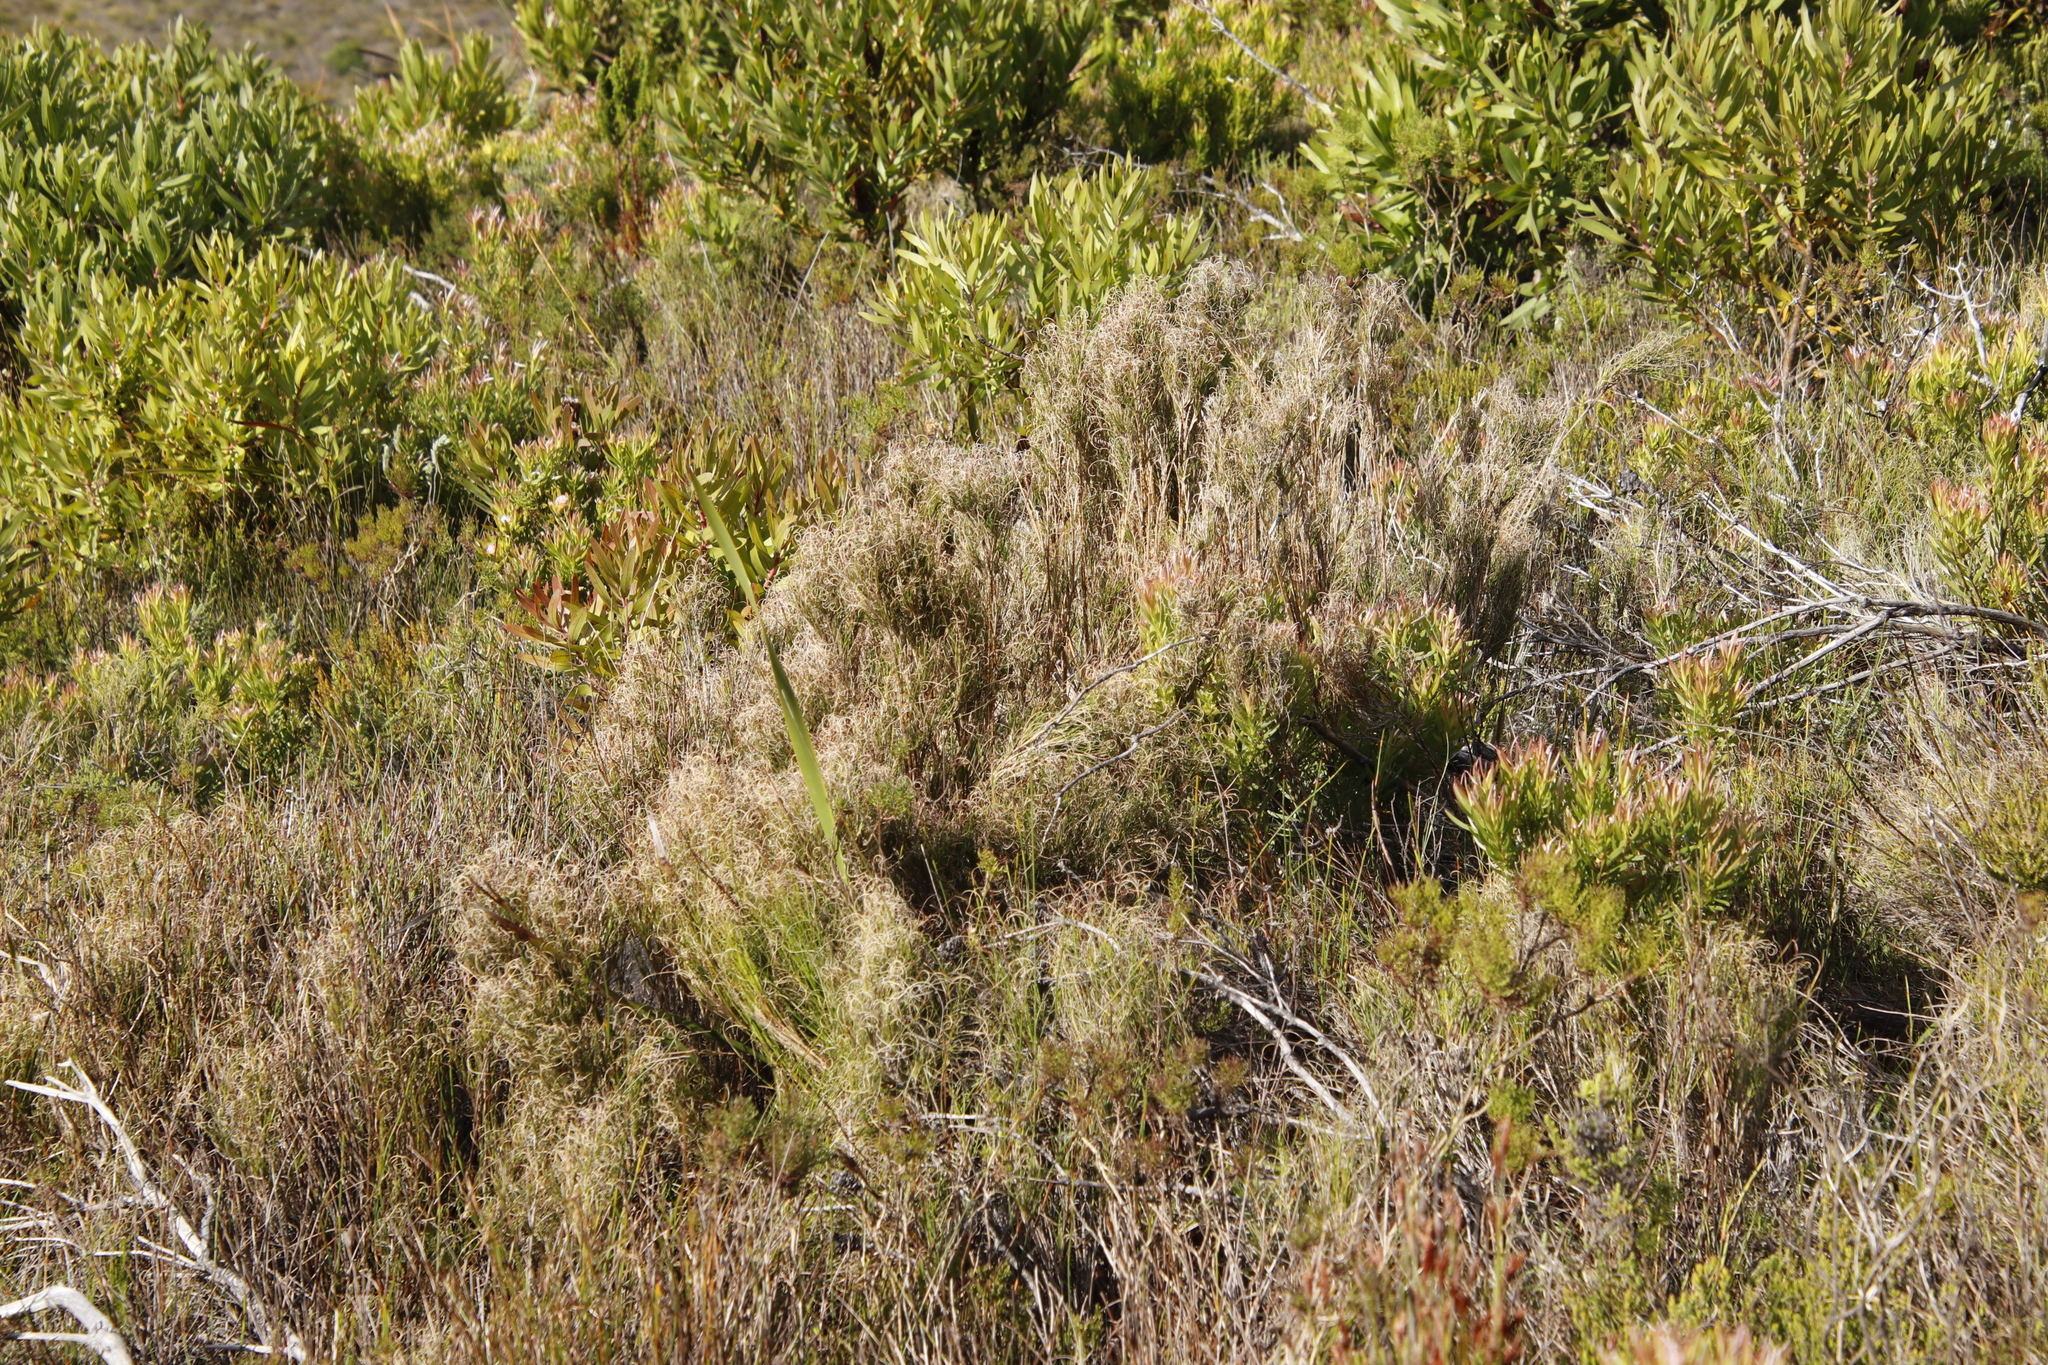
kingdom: Plantae
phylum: Tracheophyta
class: Liliopsida
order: Poales
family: Poaceae
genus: Pseudopentameris
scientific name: Pseudopentameris macrantha
